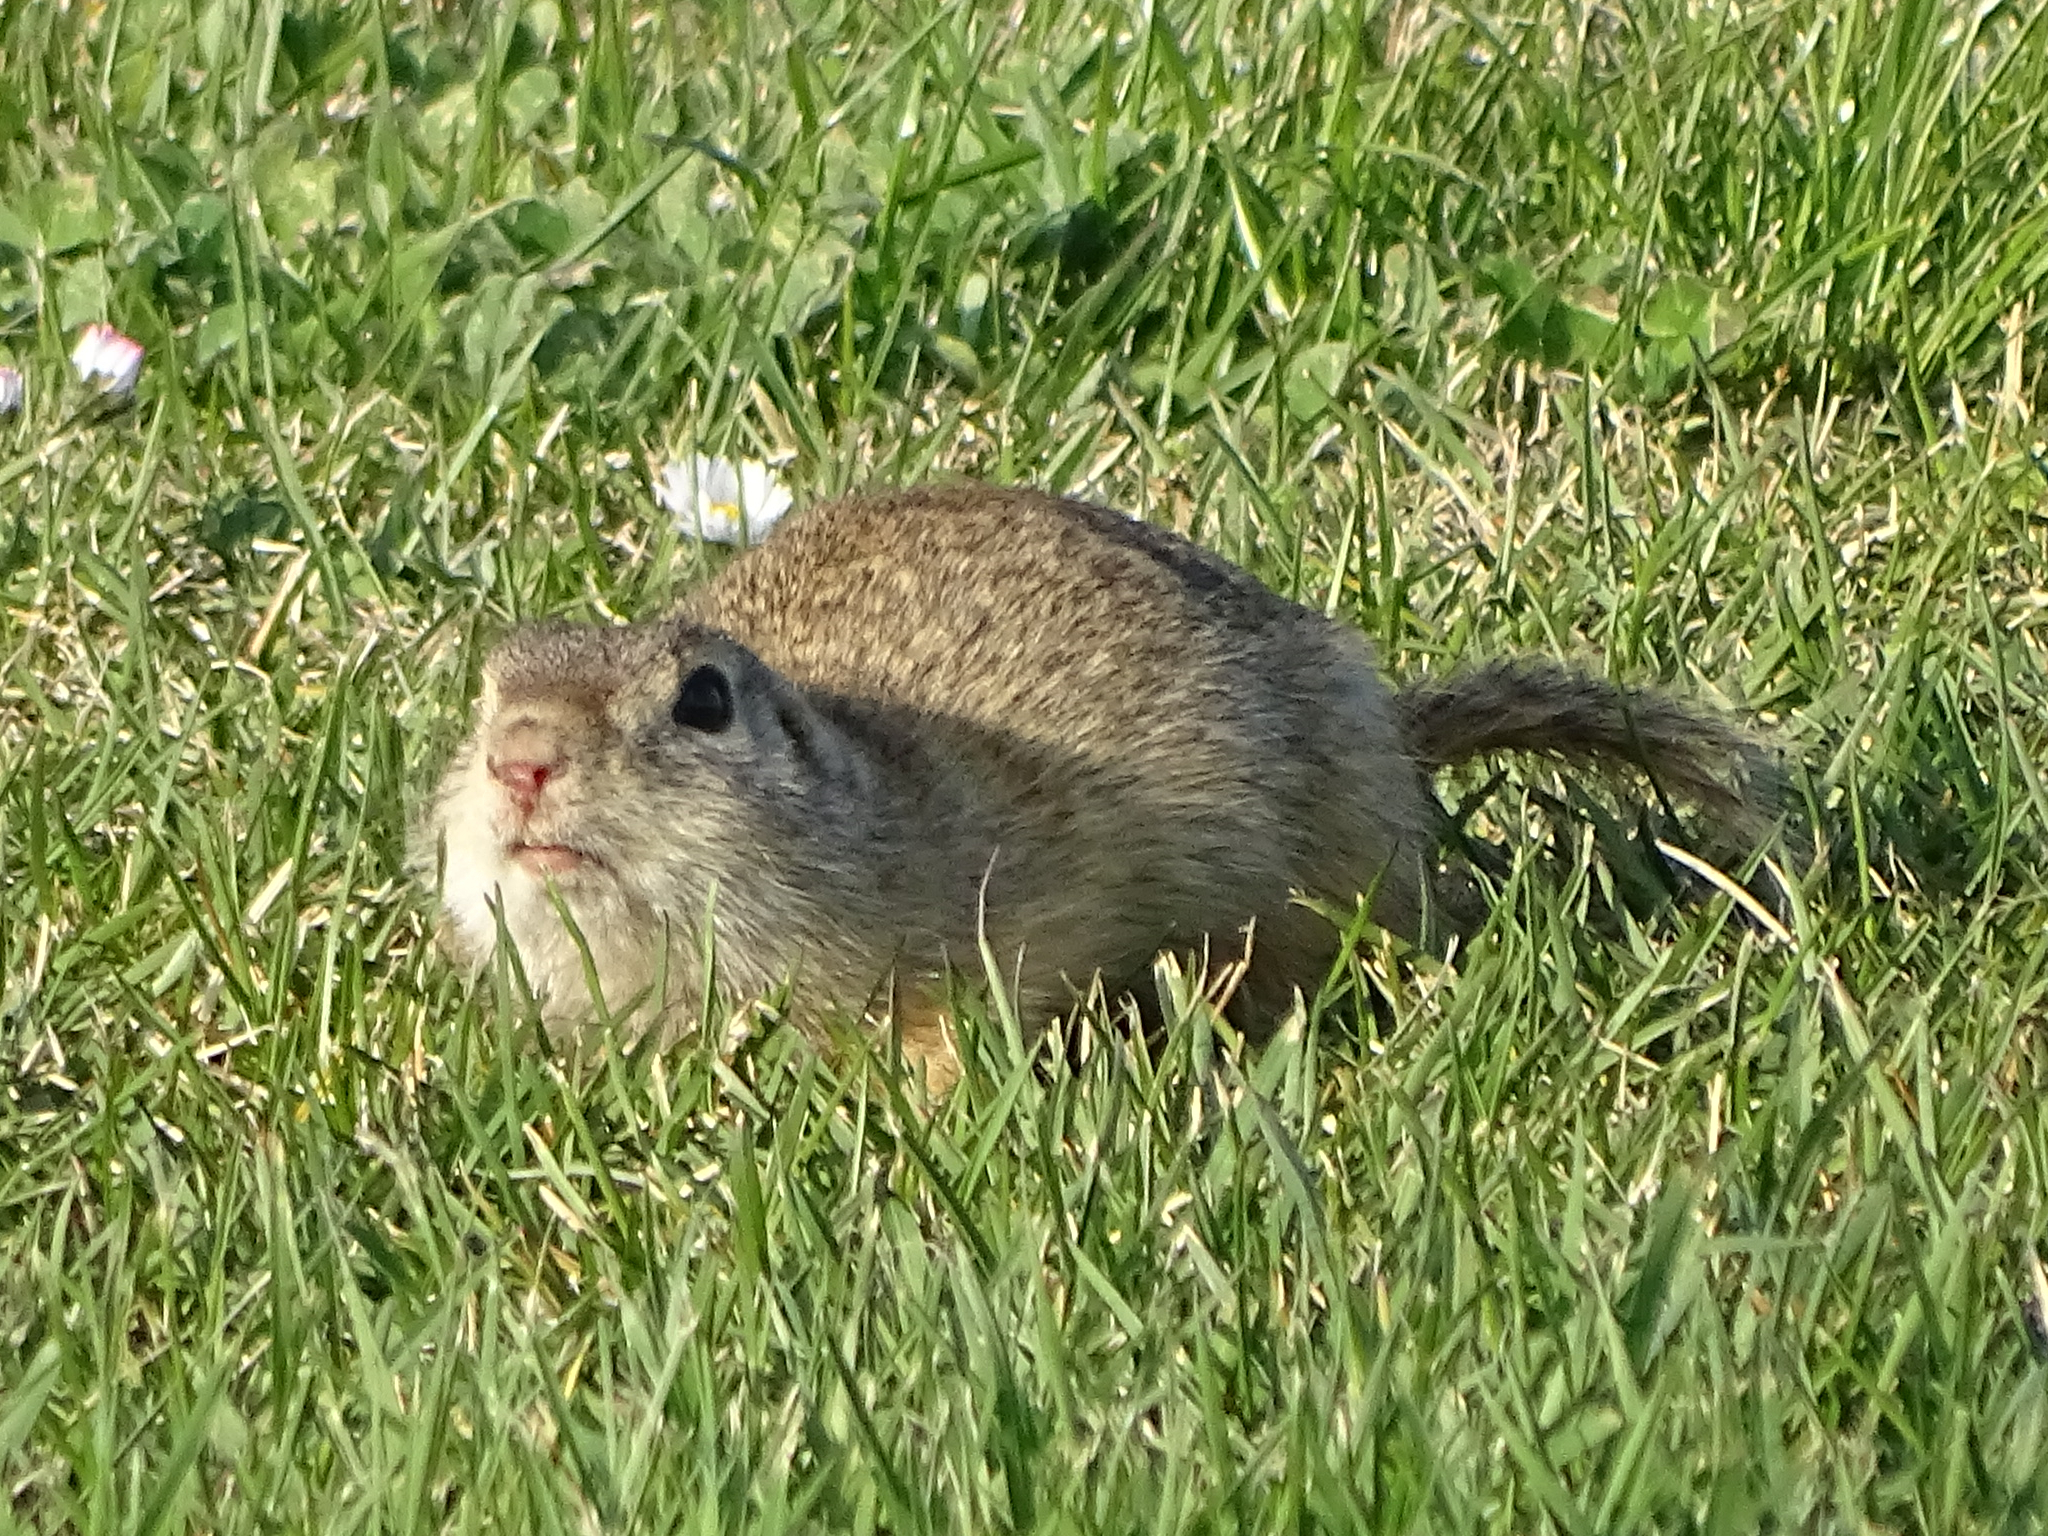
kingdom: Animalia
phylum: Chordata
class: Mammalia
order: Rodentia
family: Sciuridae
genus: Spermophilus
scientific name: Spermophilus citellus
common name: European ground squirrel
